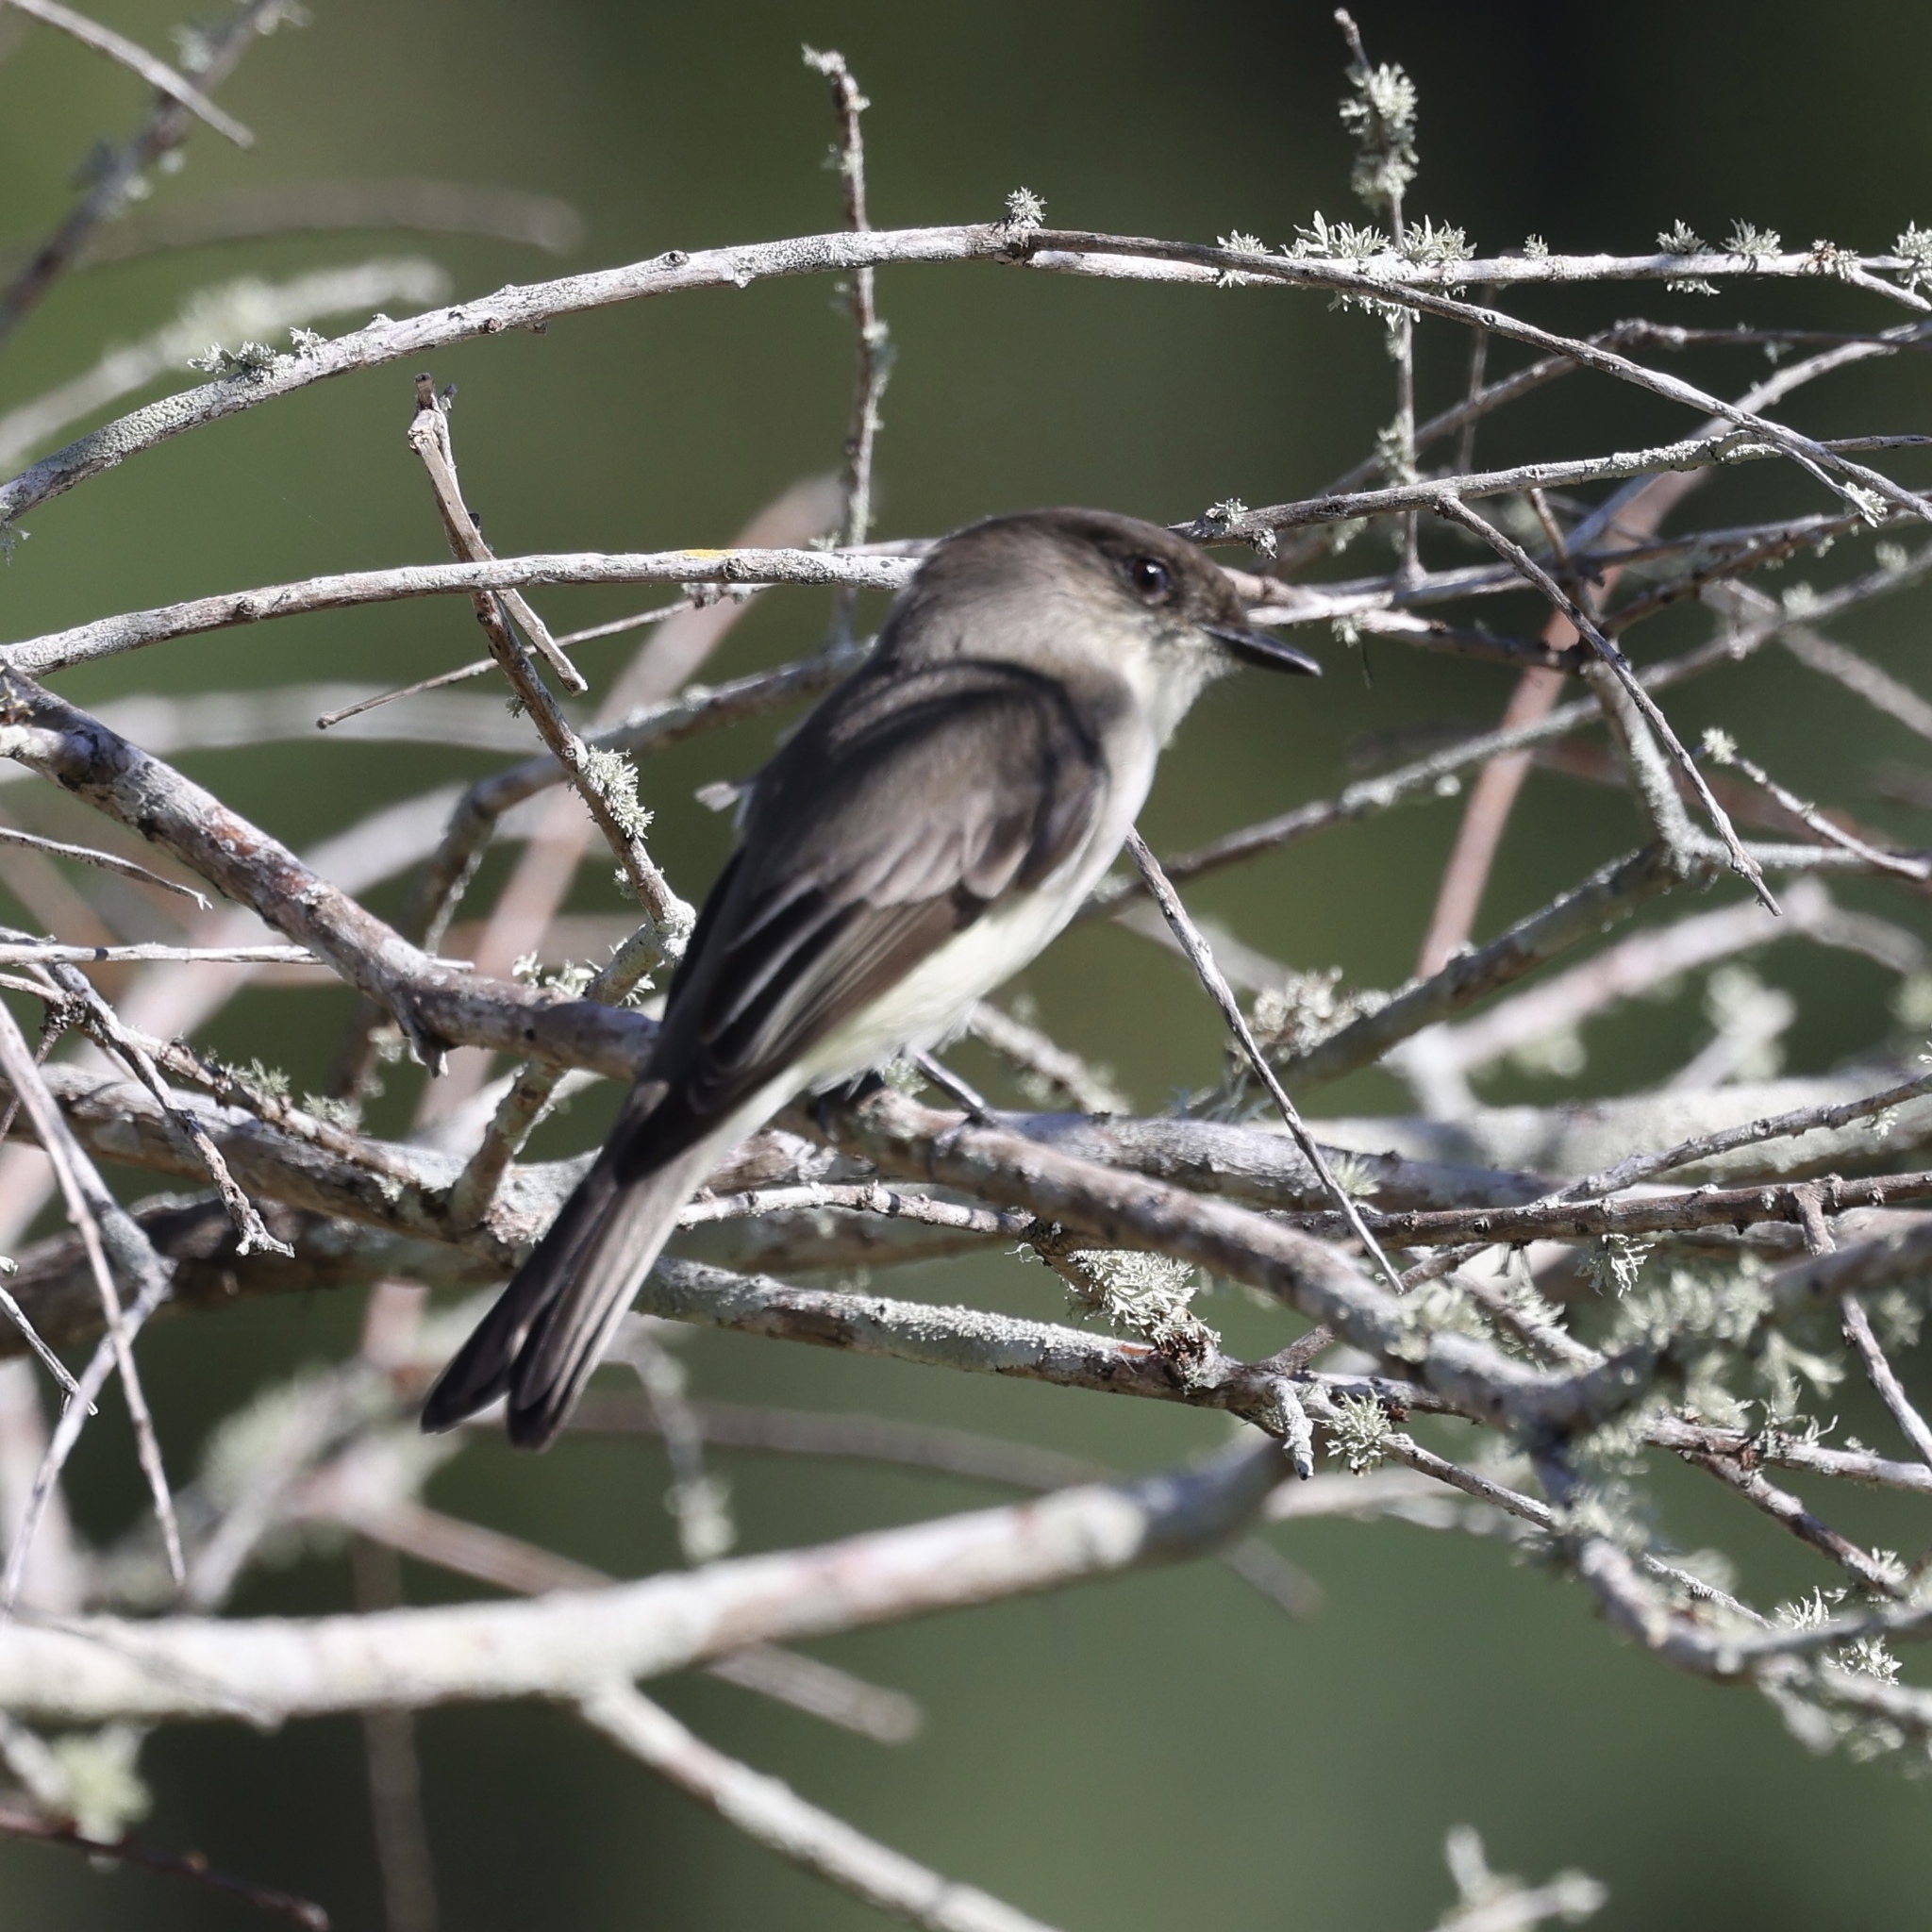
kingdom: Animalia
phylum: Chordata
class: Aves
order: Passeriformes
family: Tyrannidae
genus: Sayornis
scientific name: Sayornis phoebe
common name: Eastern phoebe
